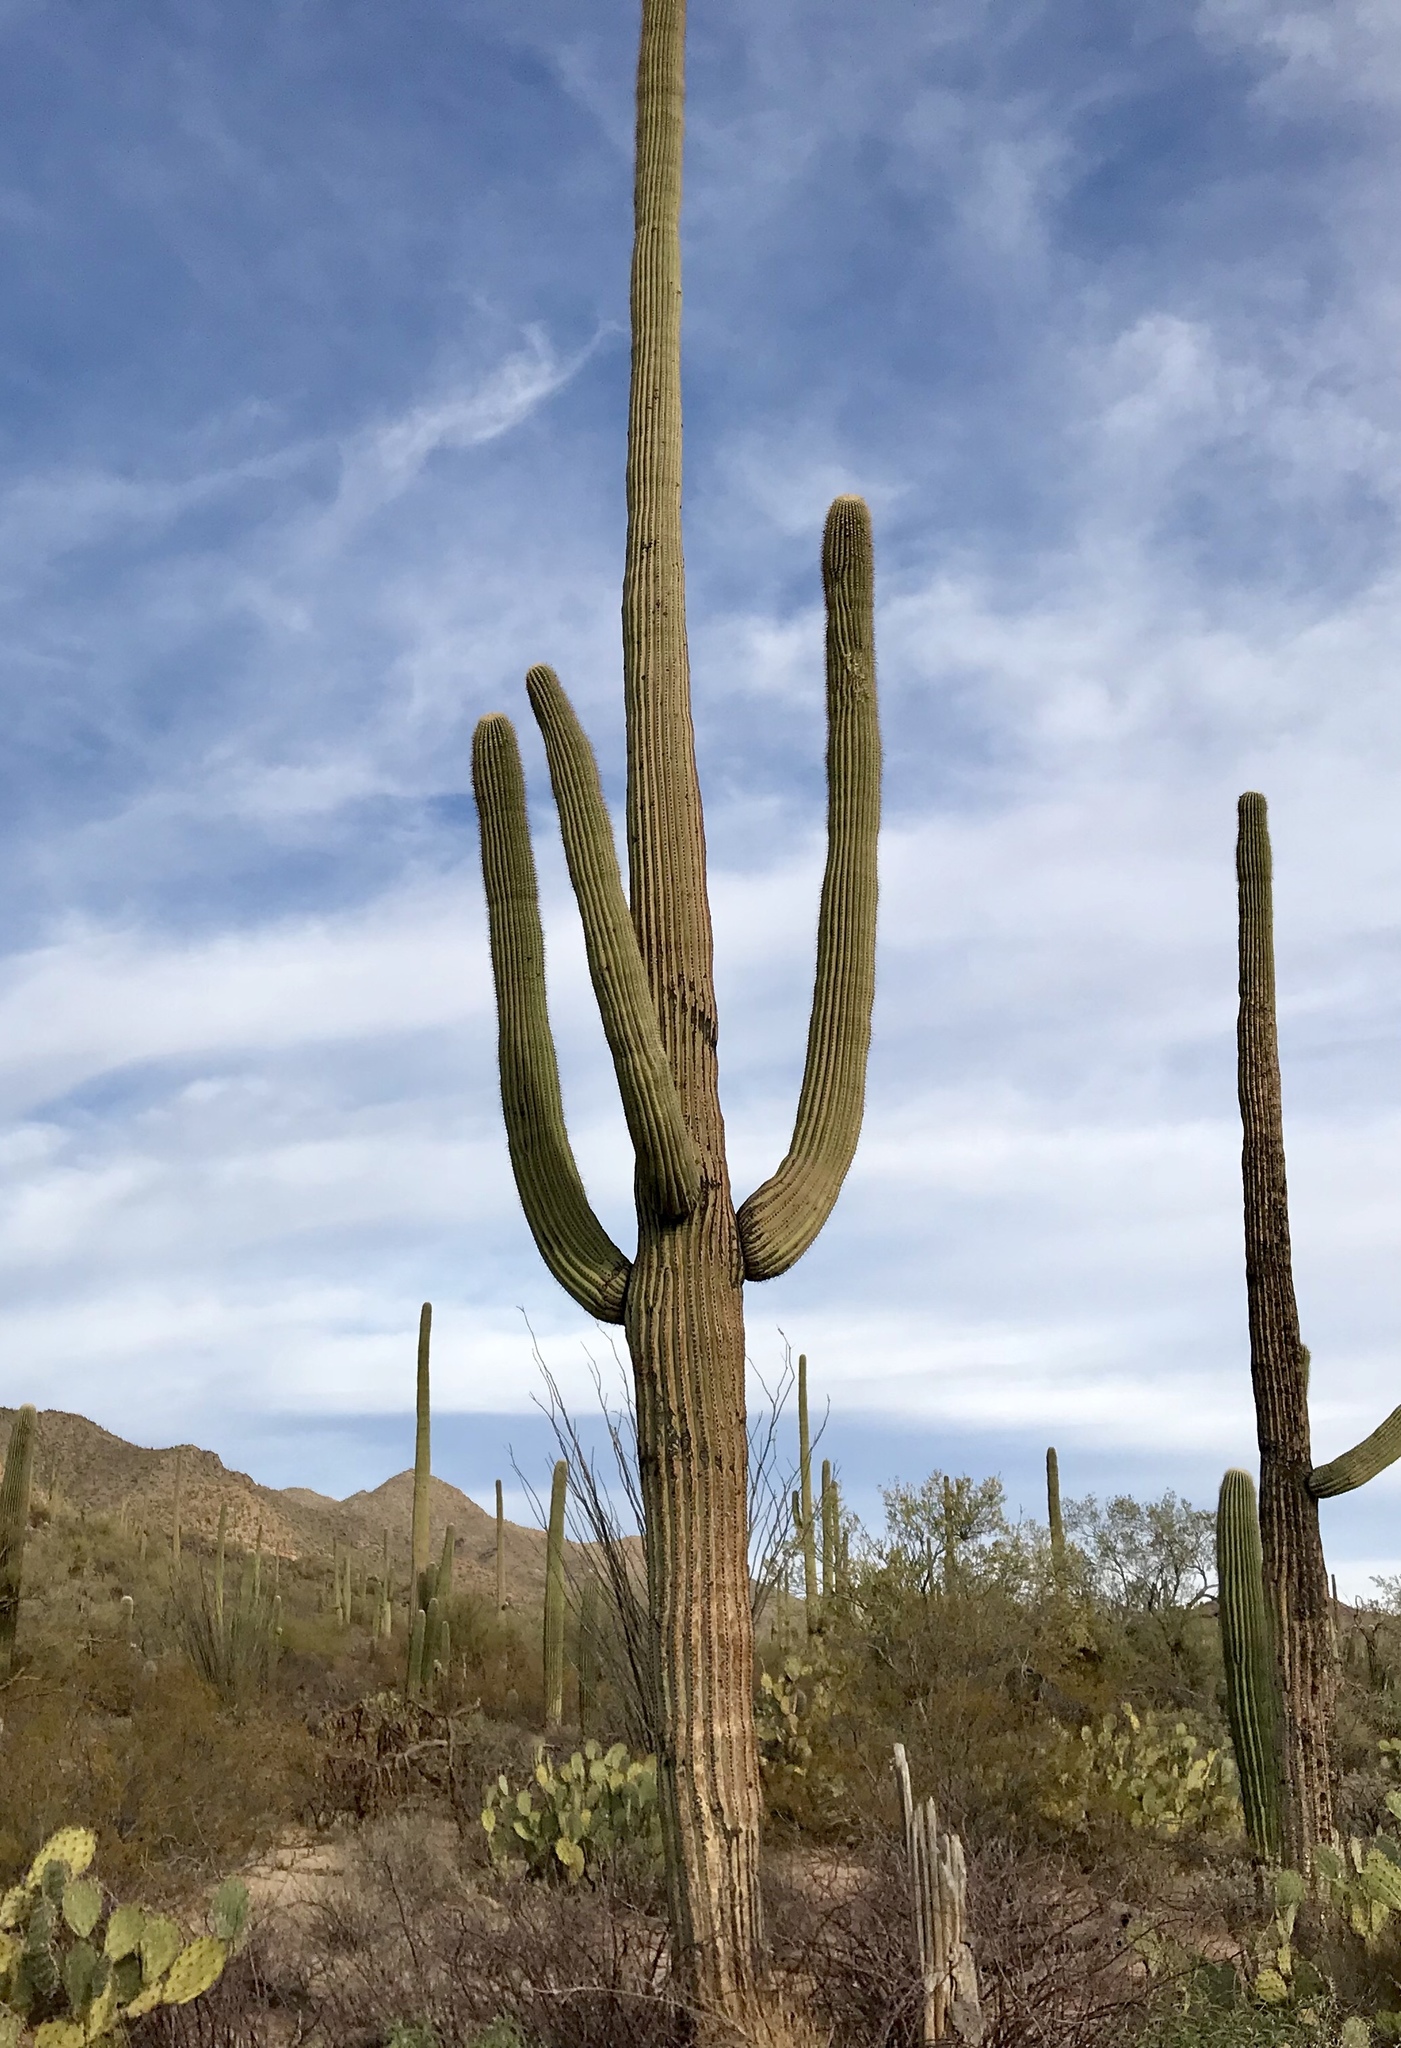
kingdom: Plantae
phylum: Tracheophyta
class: Magnoliopsida
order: Caryophyllales
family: Cactaceae
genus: Carnegiea
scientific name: Carnegiea gigantea
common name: Saguaro
